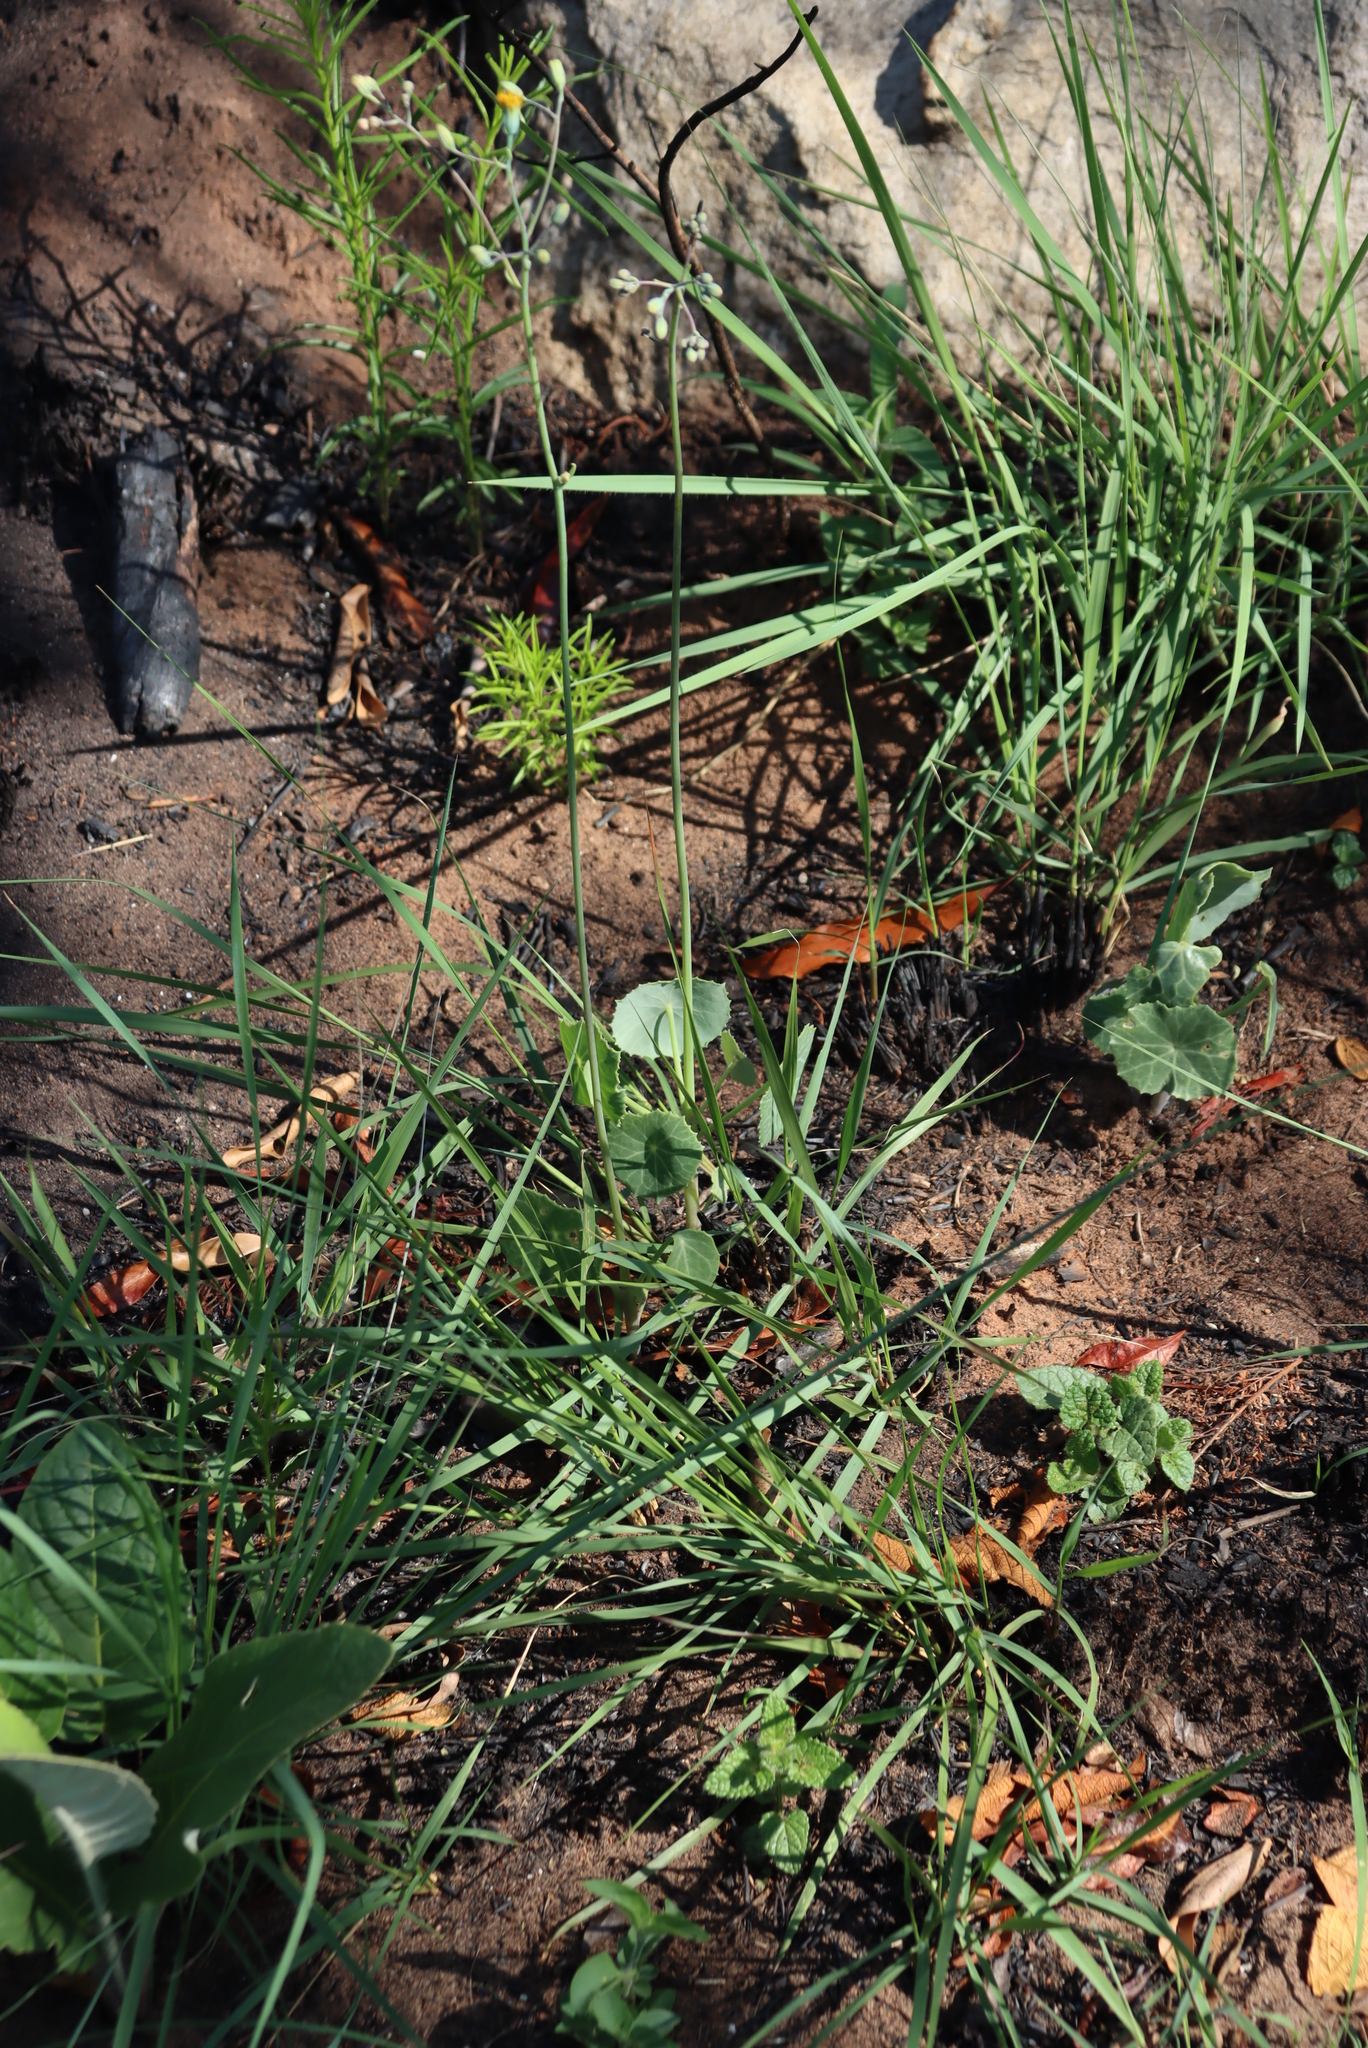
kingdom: Plantae
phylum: Tracheophyta
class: Magnoliopsida
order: Asterales
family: Asteraceae
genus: Senecio
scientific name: Senecio oxyriifolius
